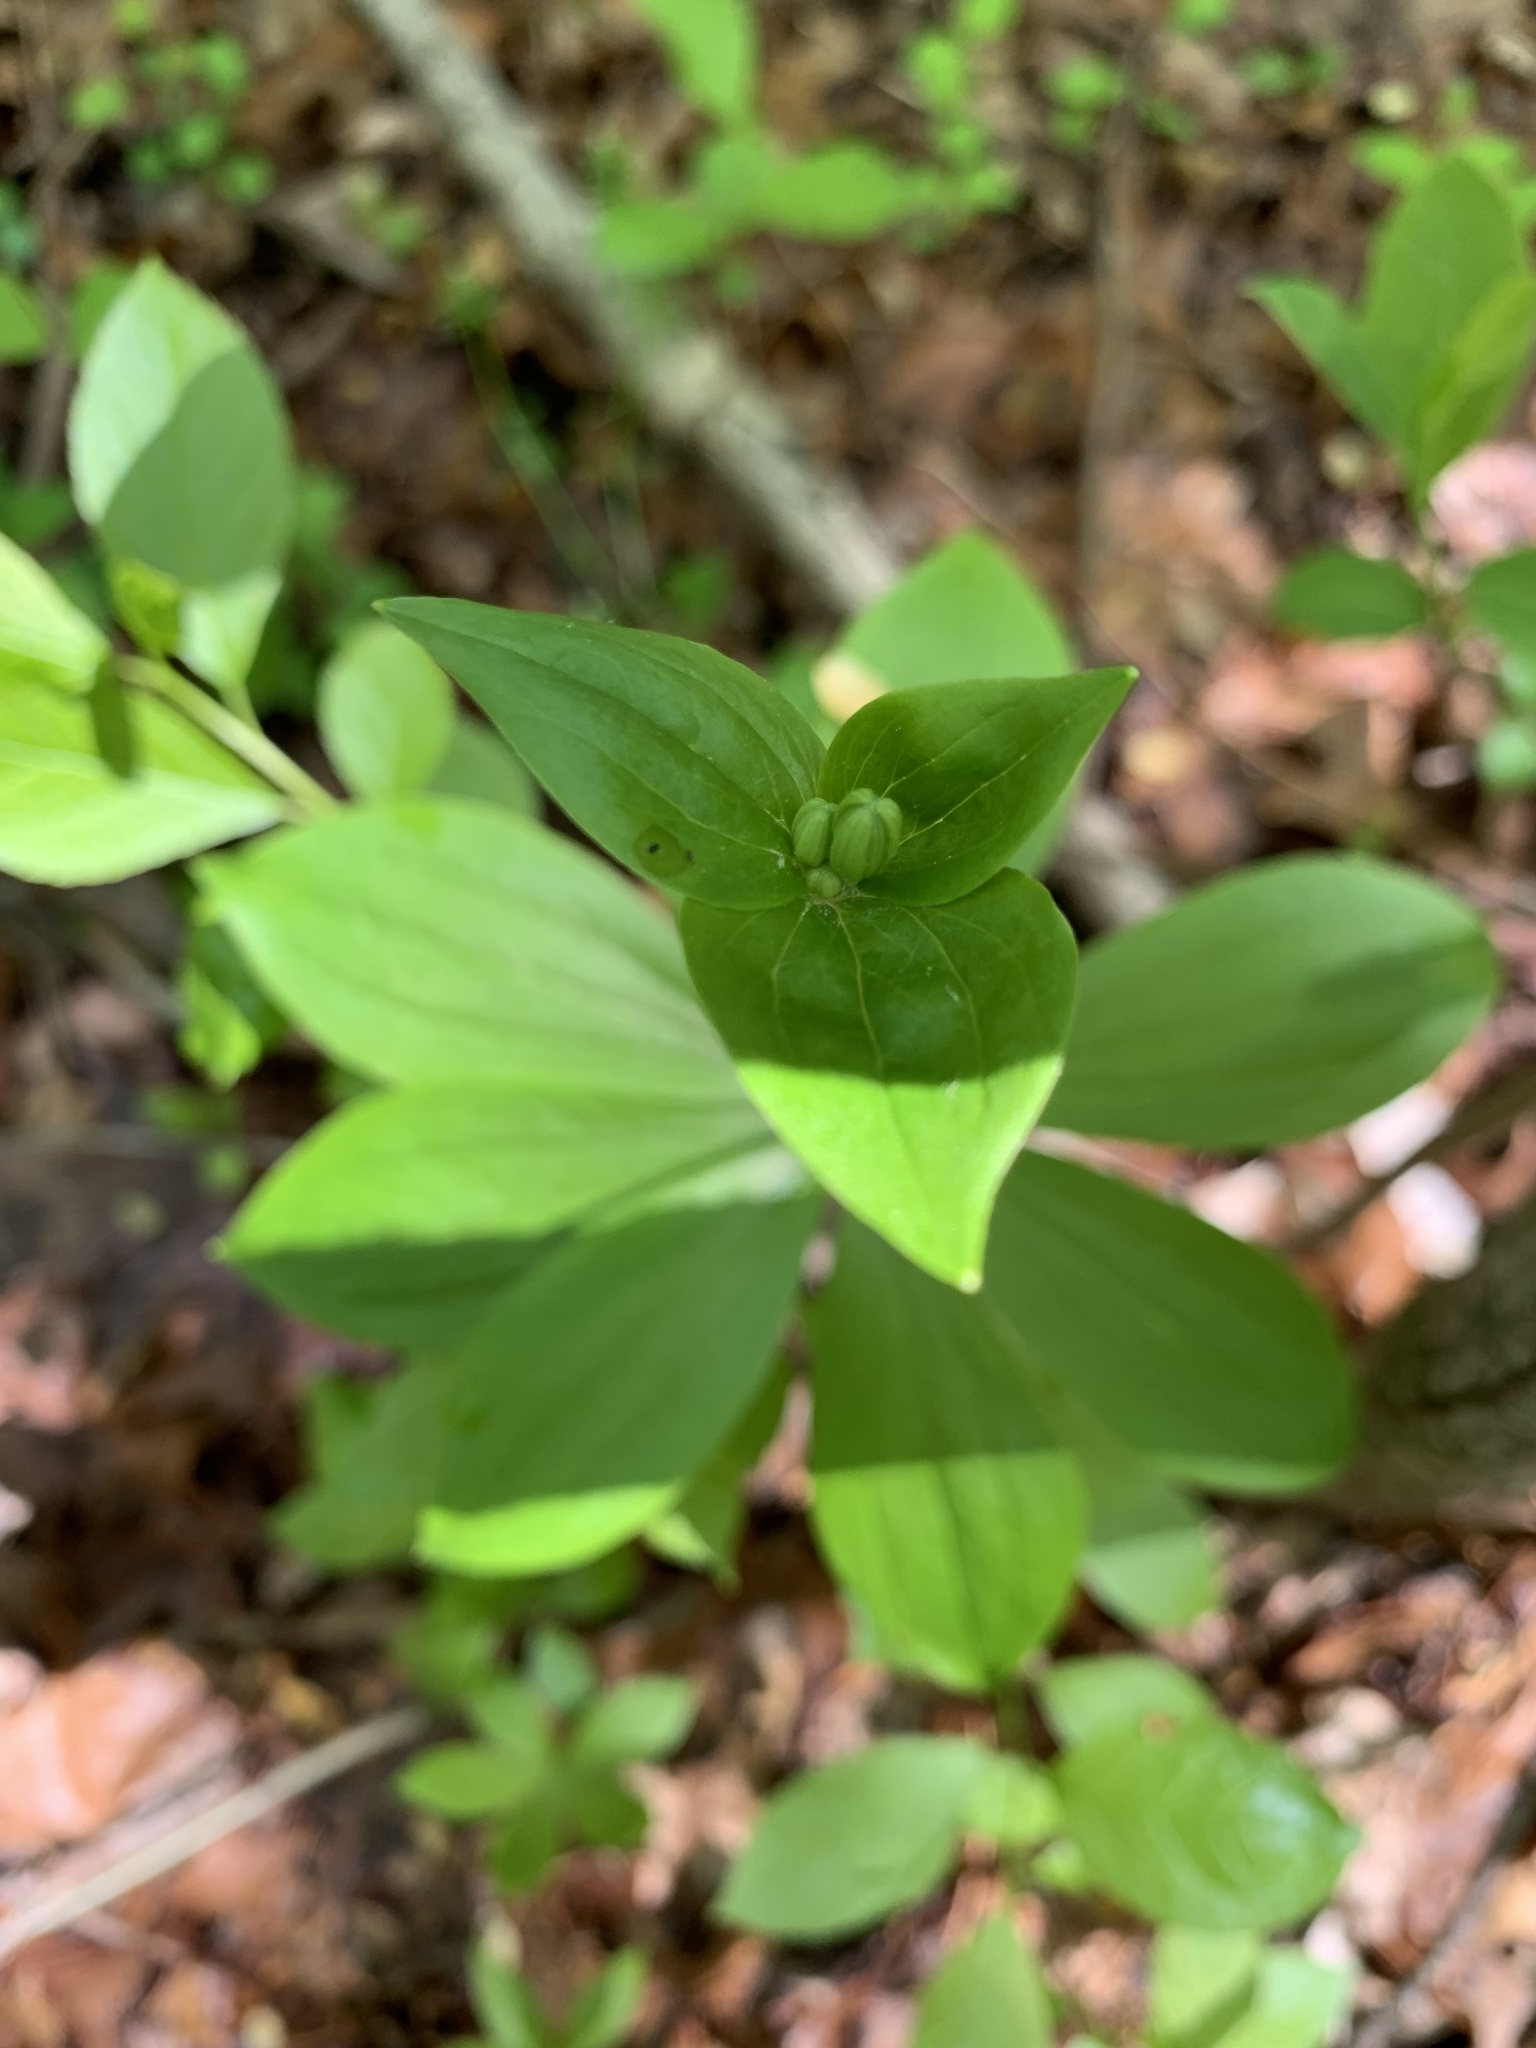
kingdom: Plantae
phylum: Tracheophyta
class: Liliopsida
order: Liliales
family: Liliaceae
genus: Medeola
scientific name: Medeola virginiana
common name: Indian cucumber-root
